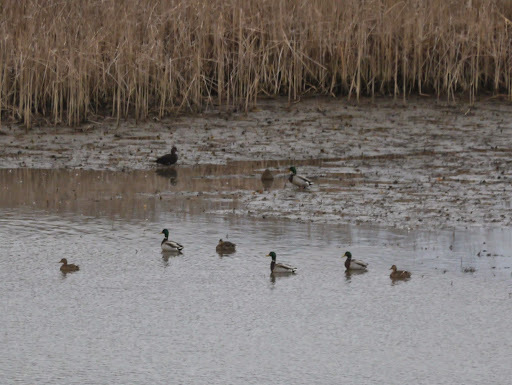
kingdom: Animalia
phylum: Chordata
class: Aves
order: Anseriformes
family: Anatidae
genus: Anas
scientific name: Anas platyrhynchos
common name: Mallard
